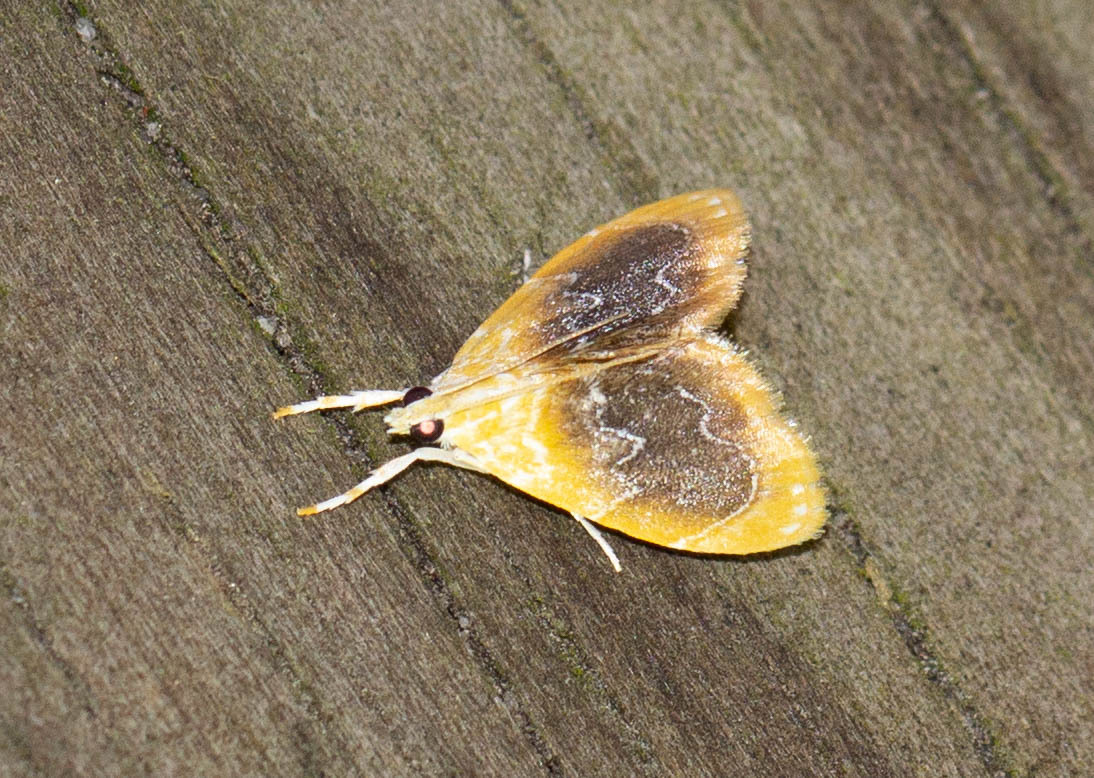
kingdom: Animalia
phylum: Arthropoda
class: Insecta
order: Lepidoptera
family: Crambidae
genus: Glaphyria
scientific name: Glaphyria fulminalis
